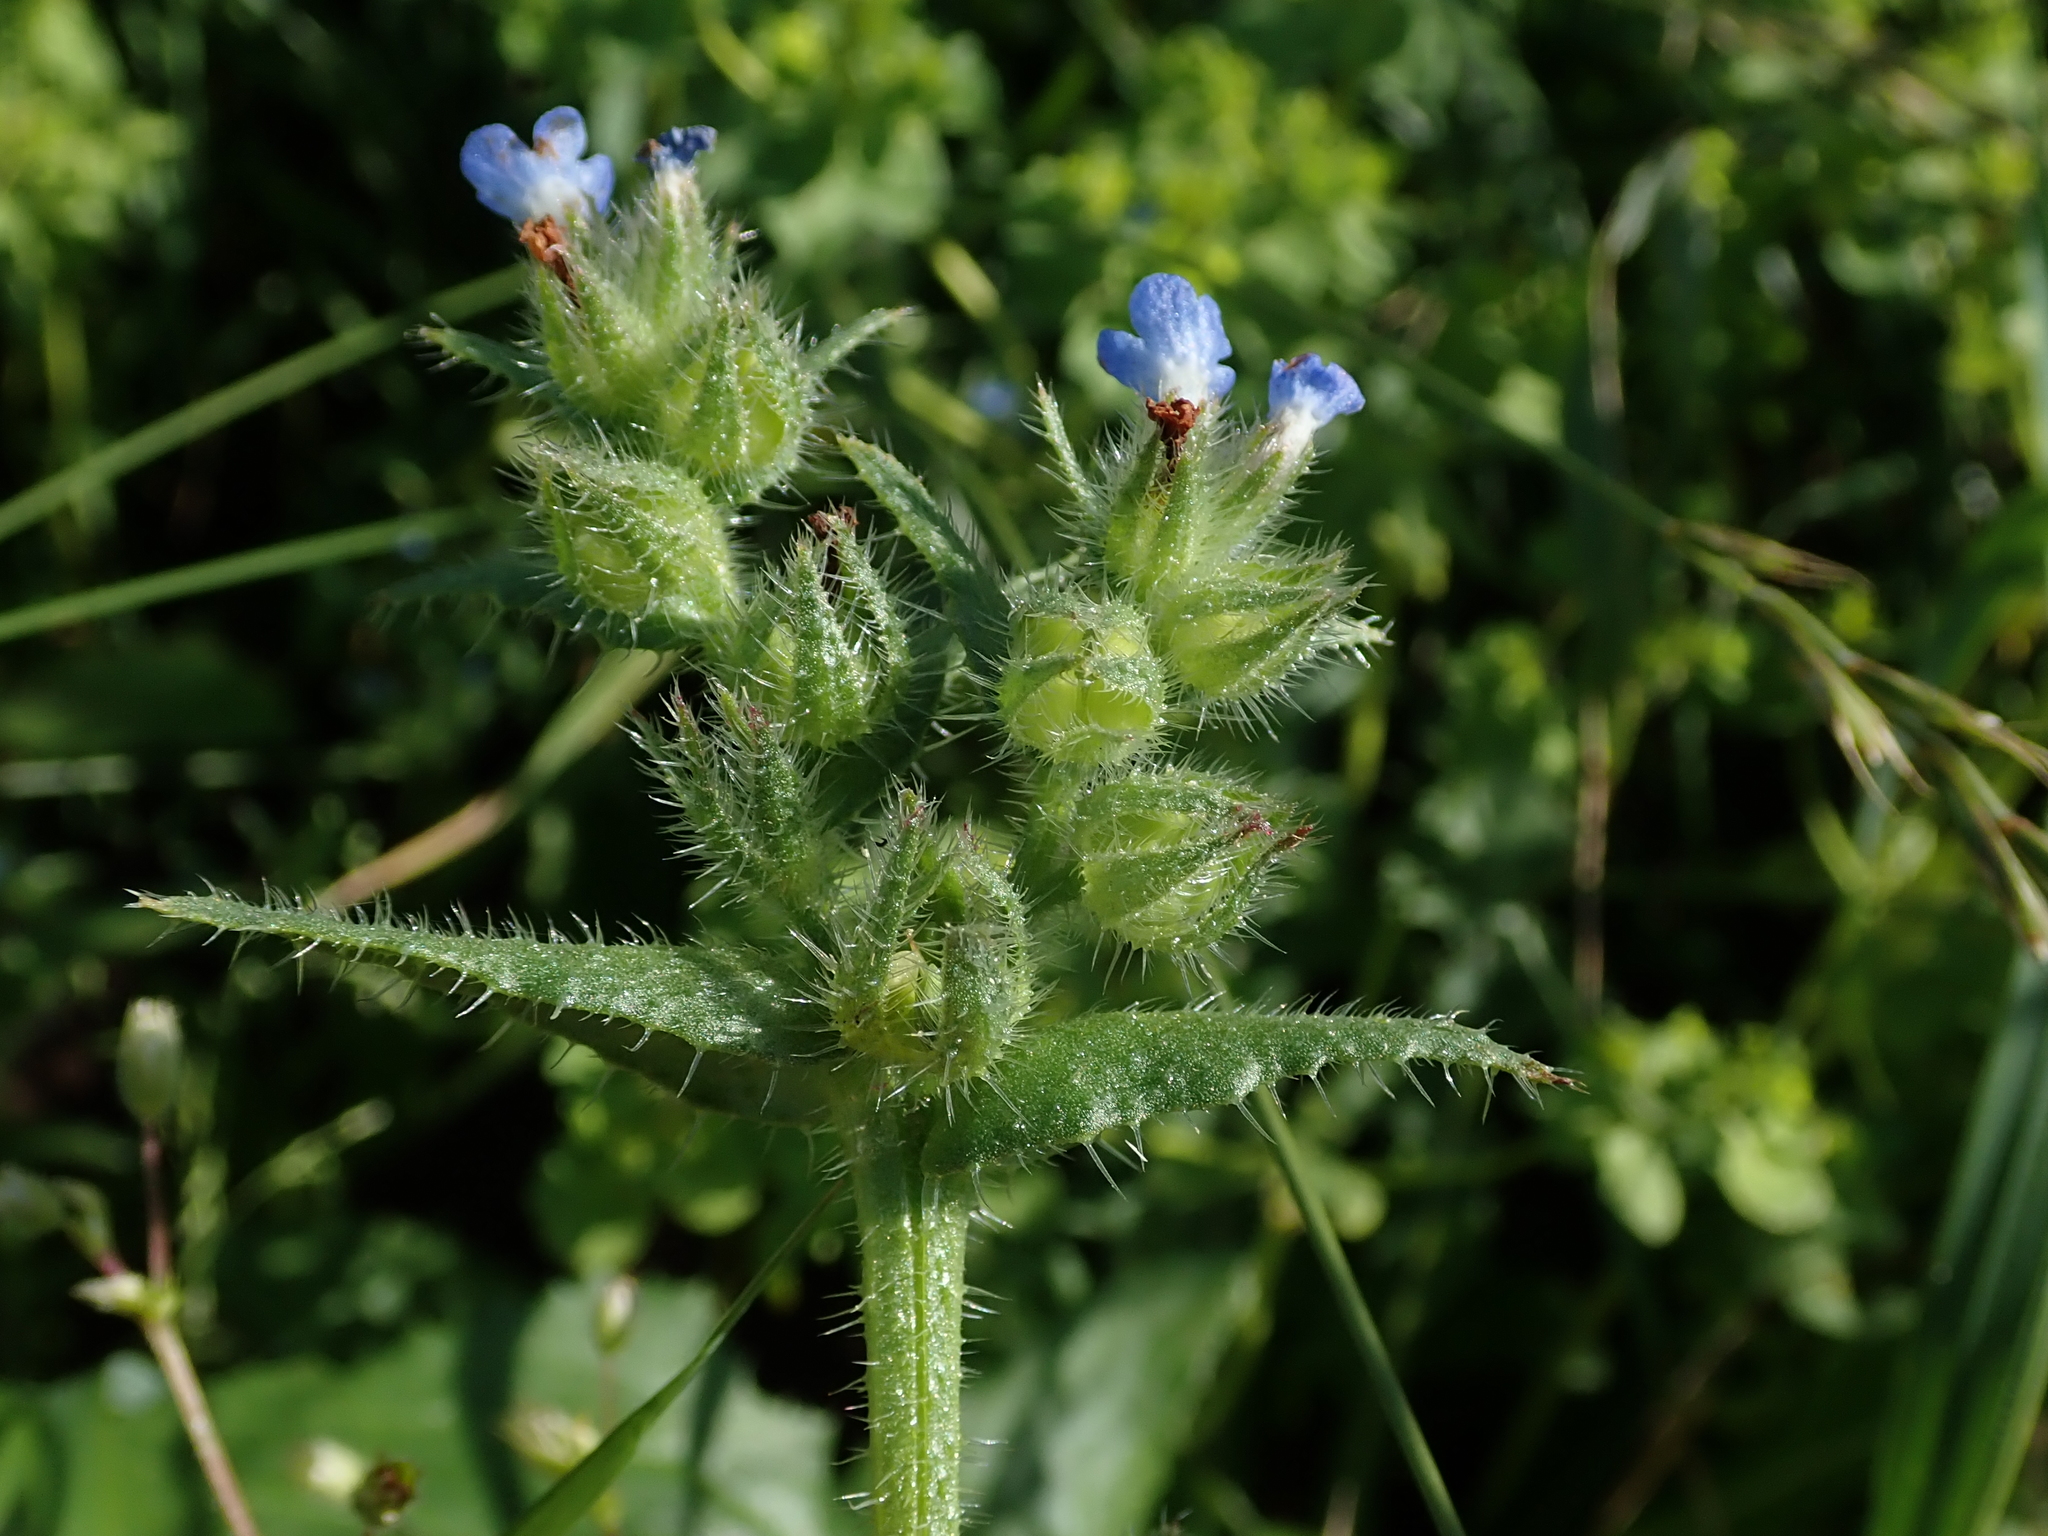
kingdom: Plantae
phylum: Tracheophyta
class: Magnoliopsida
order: Boraginales
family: Boraginaceae
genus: Lycopsis
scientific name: Lycopsis arvensis
